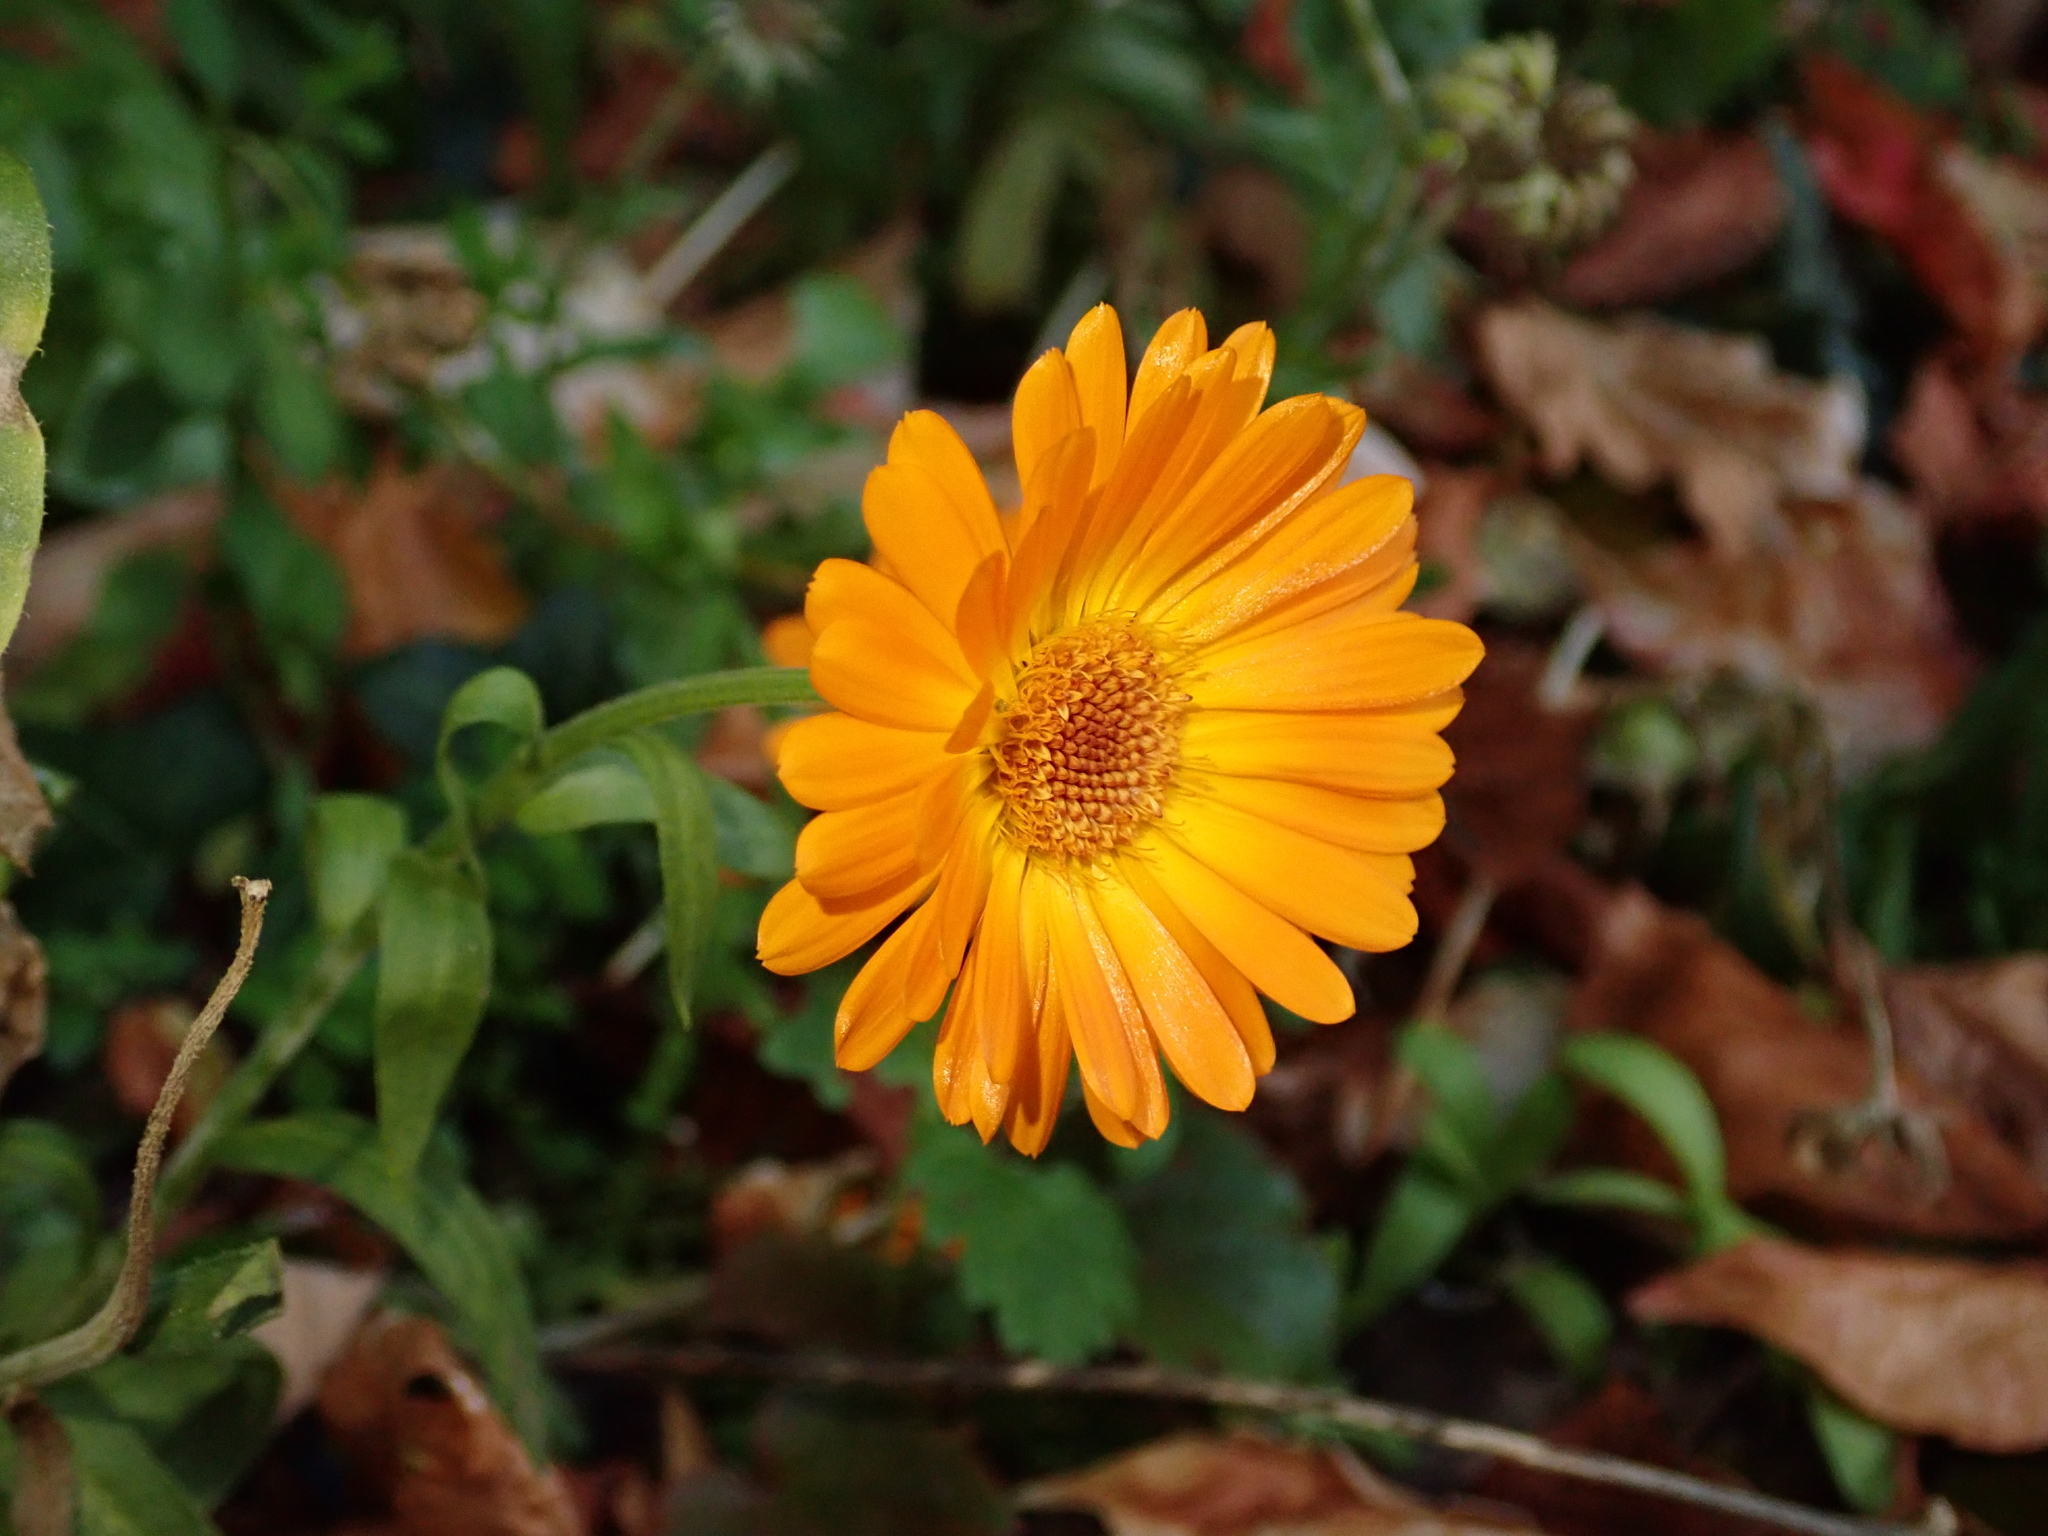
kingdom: Plantae
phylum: Tracheophyta
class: Magnoliopsida
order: Asterales
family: Asteraceae
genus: Calendula
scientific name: Calendula officinalis
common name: Pot marigold
